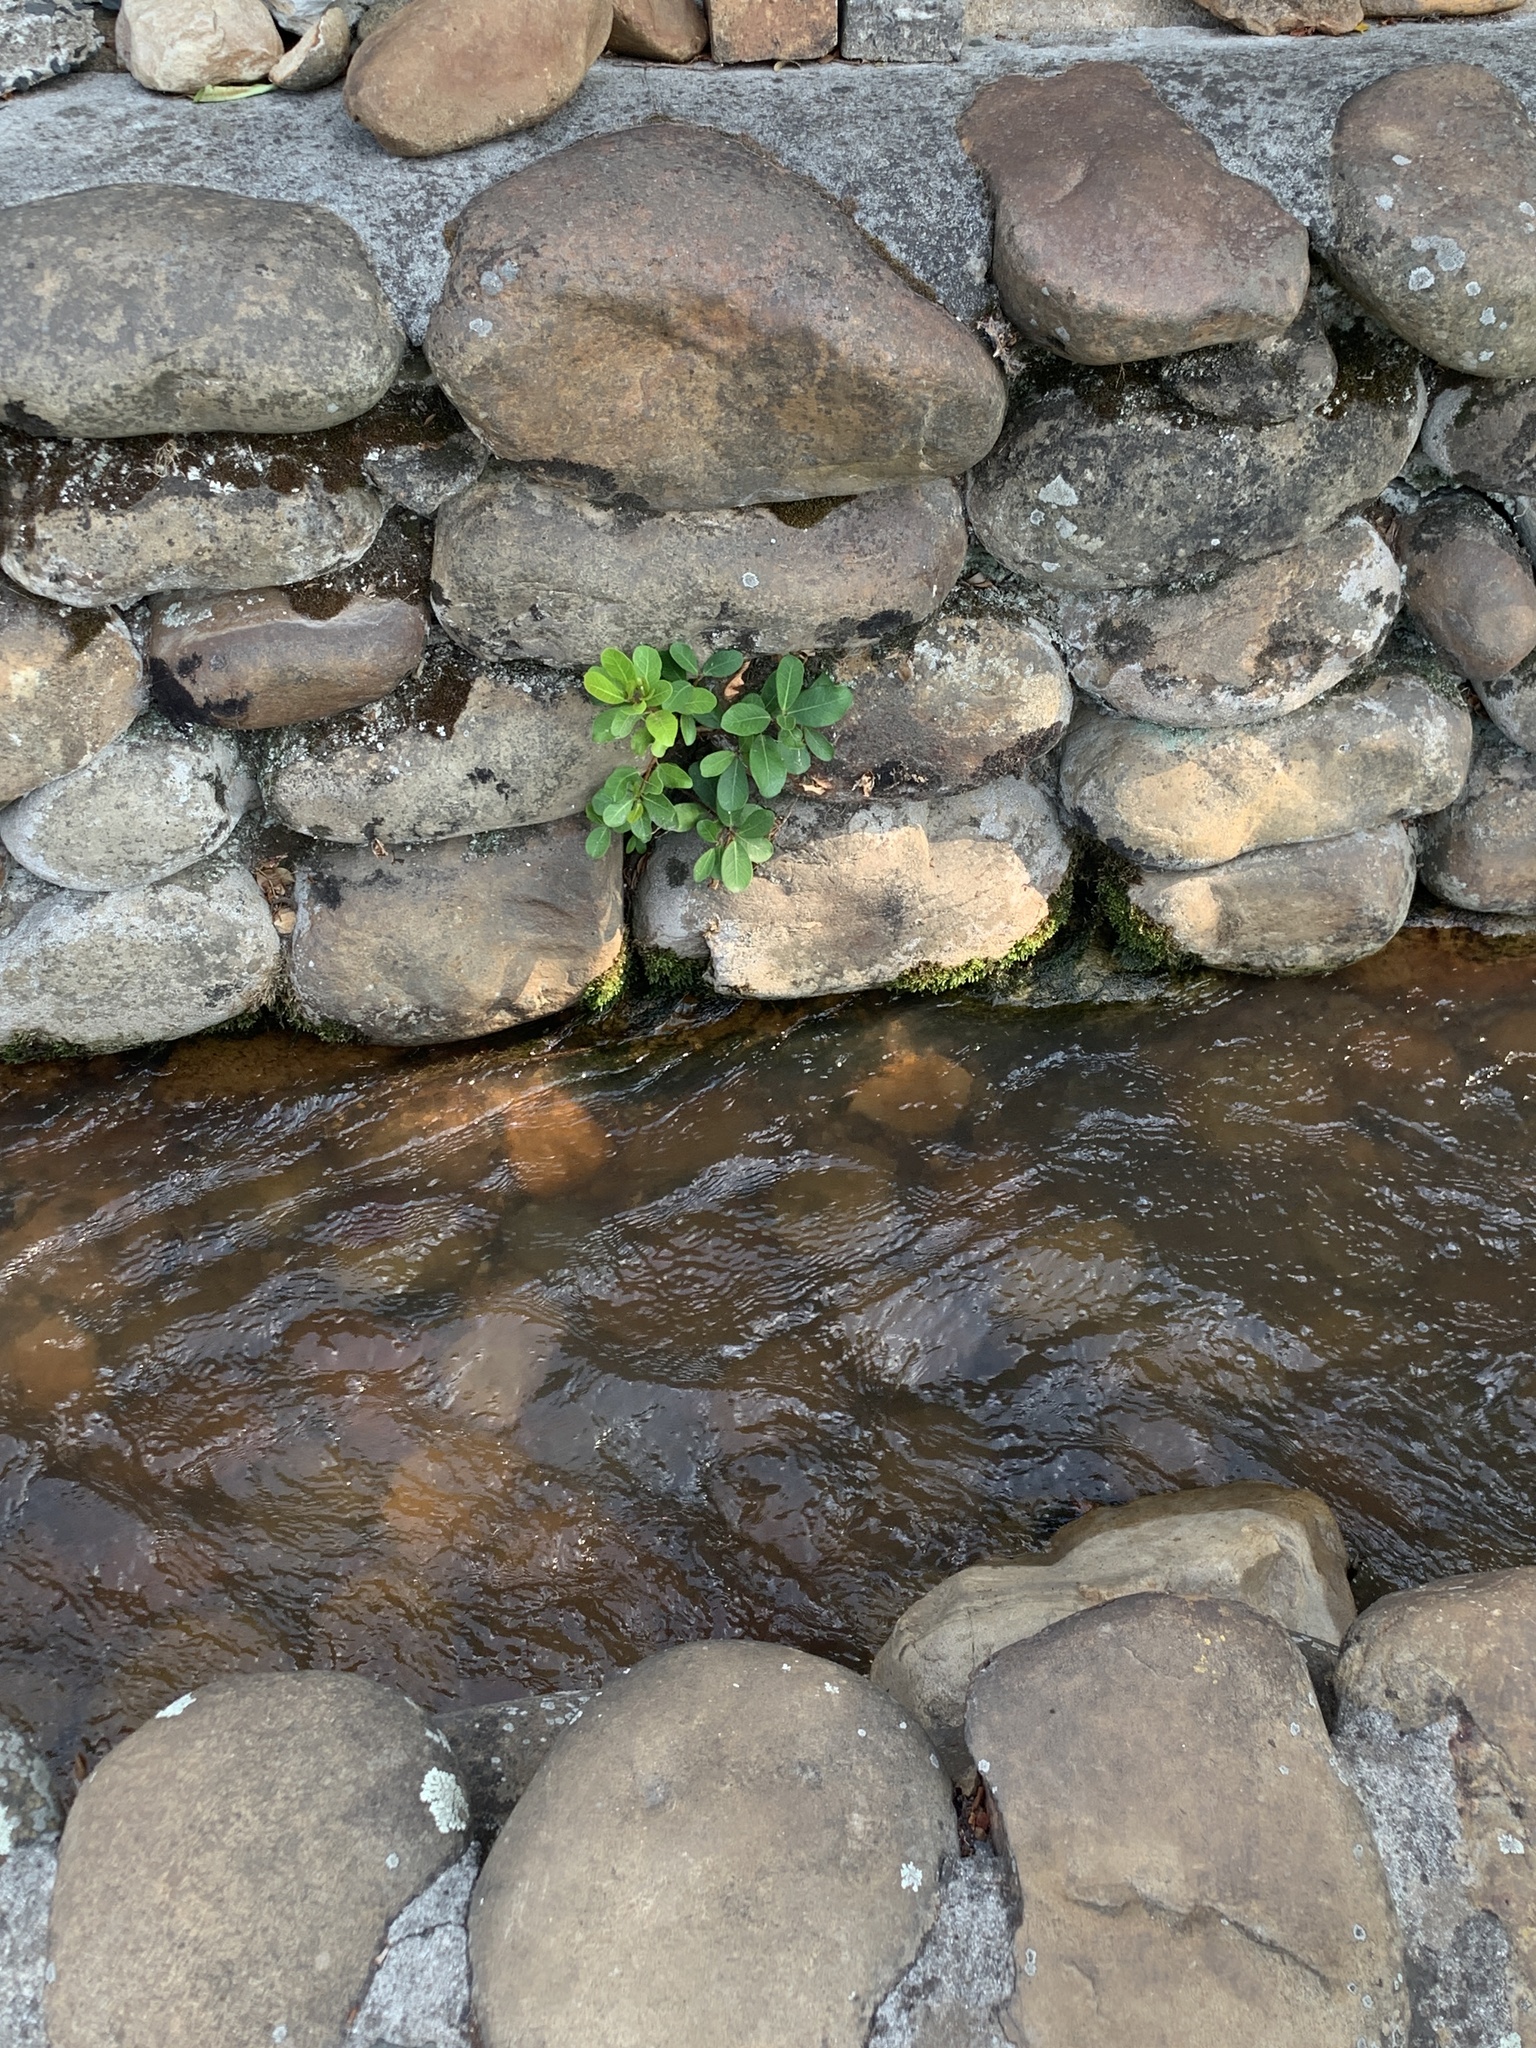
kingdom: Plantae
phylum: Tracheophyta
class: Magnoliopsida
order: Rosales
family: Moraceae
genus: Ficus
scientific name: Ficus thonningii
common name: Fig
